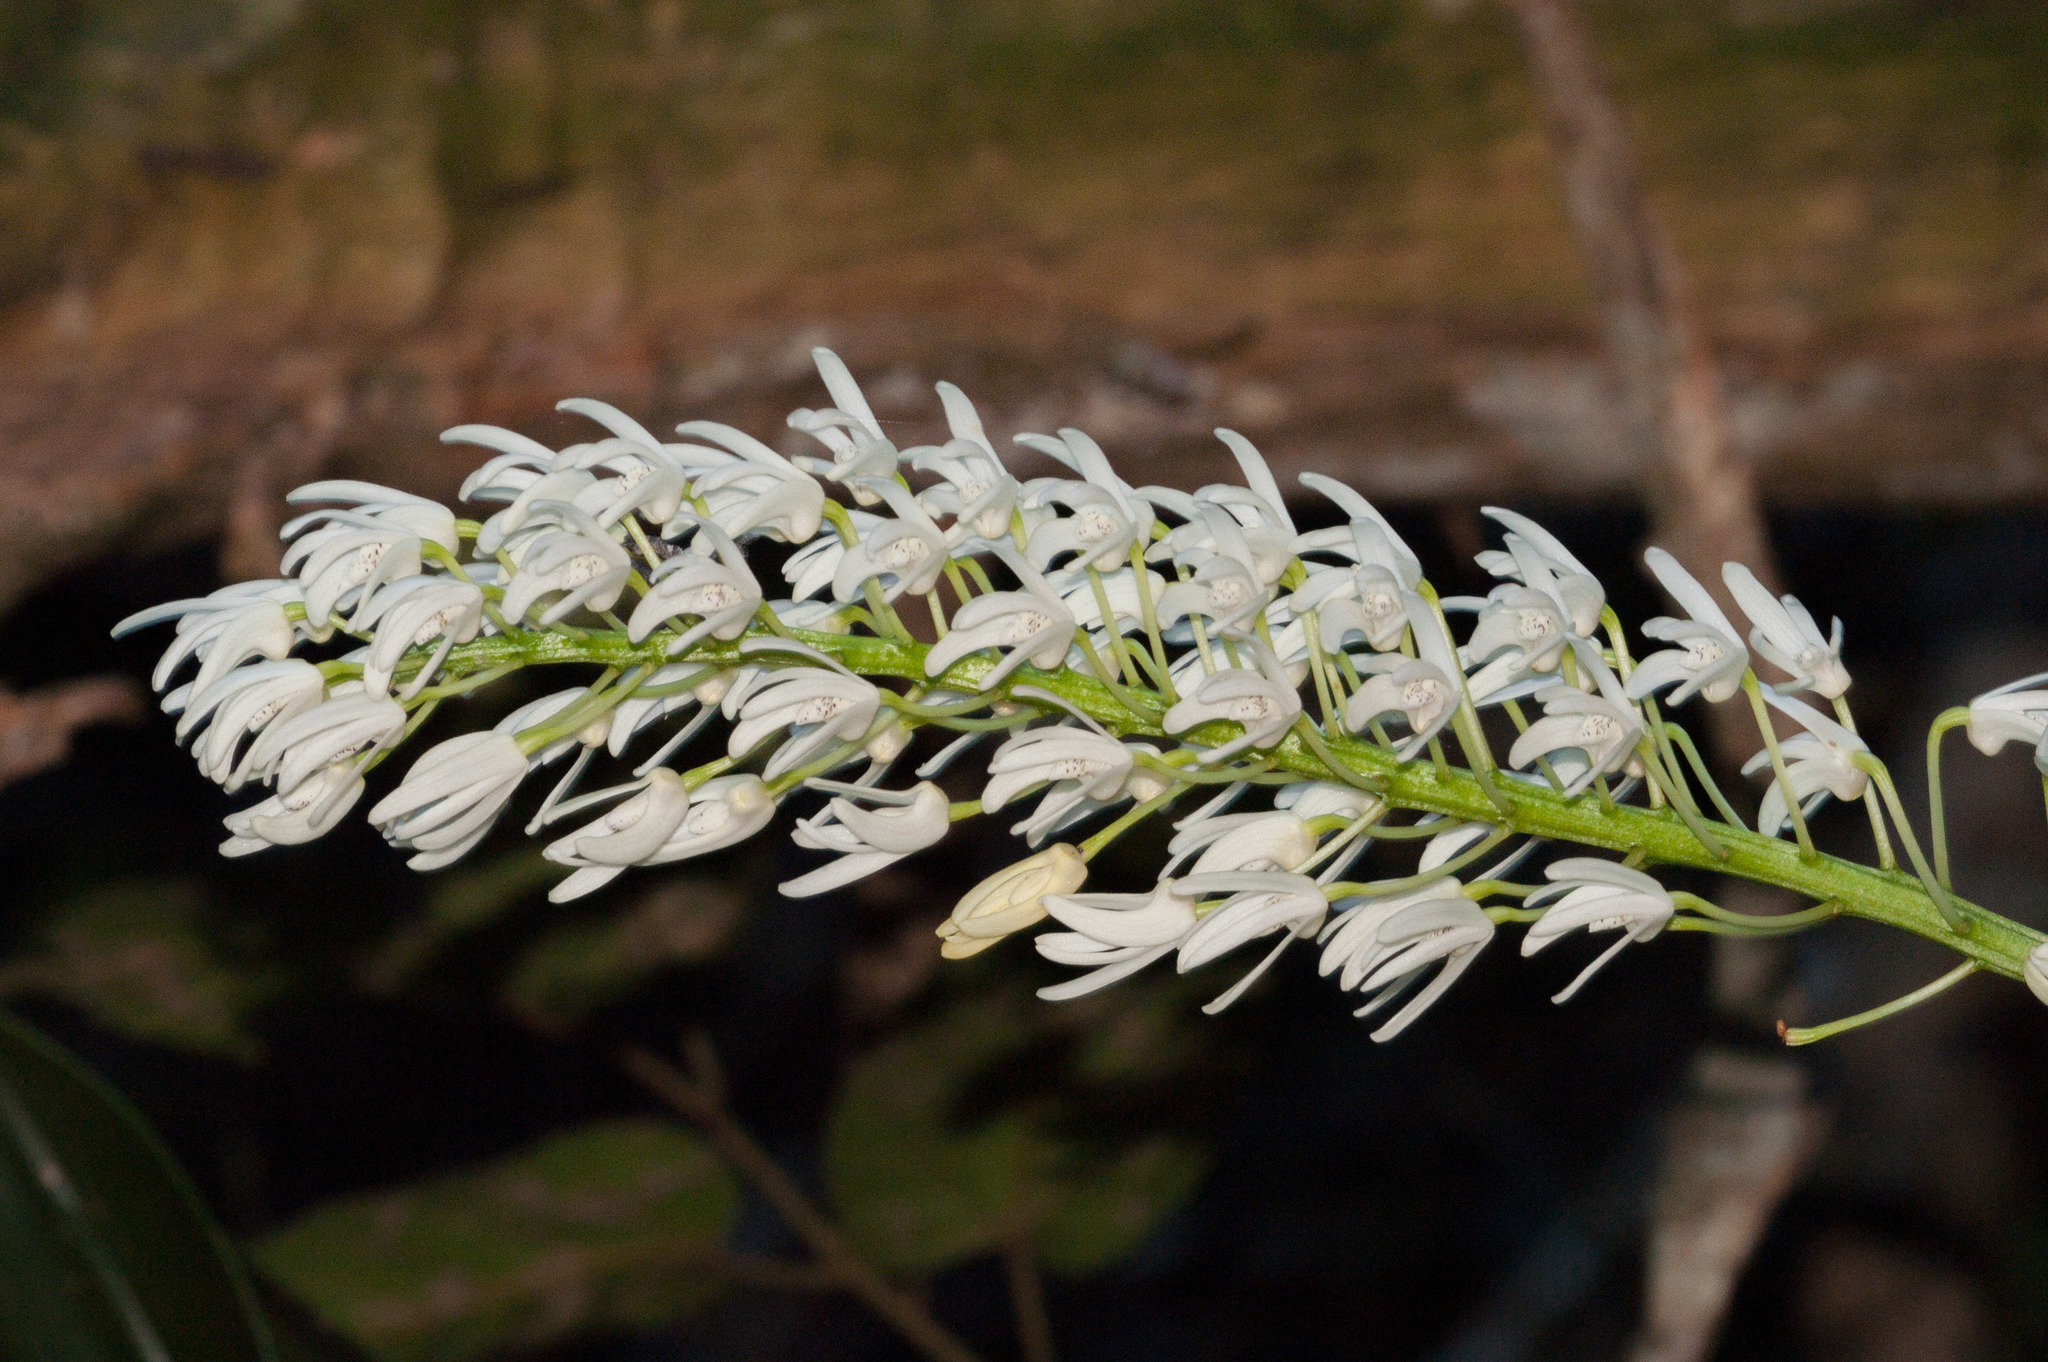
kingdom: Plantae
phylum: Tracheophyta
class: Liliopsida
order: Asparagales
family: Orchidaceae
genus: Dendrobium
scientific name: Dendrobium speciosum
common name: Rock-lily
